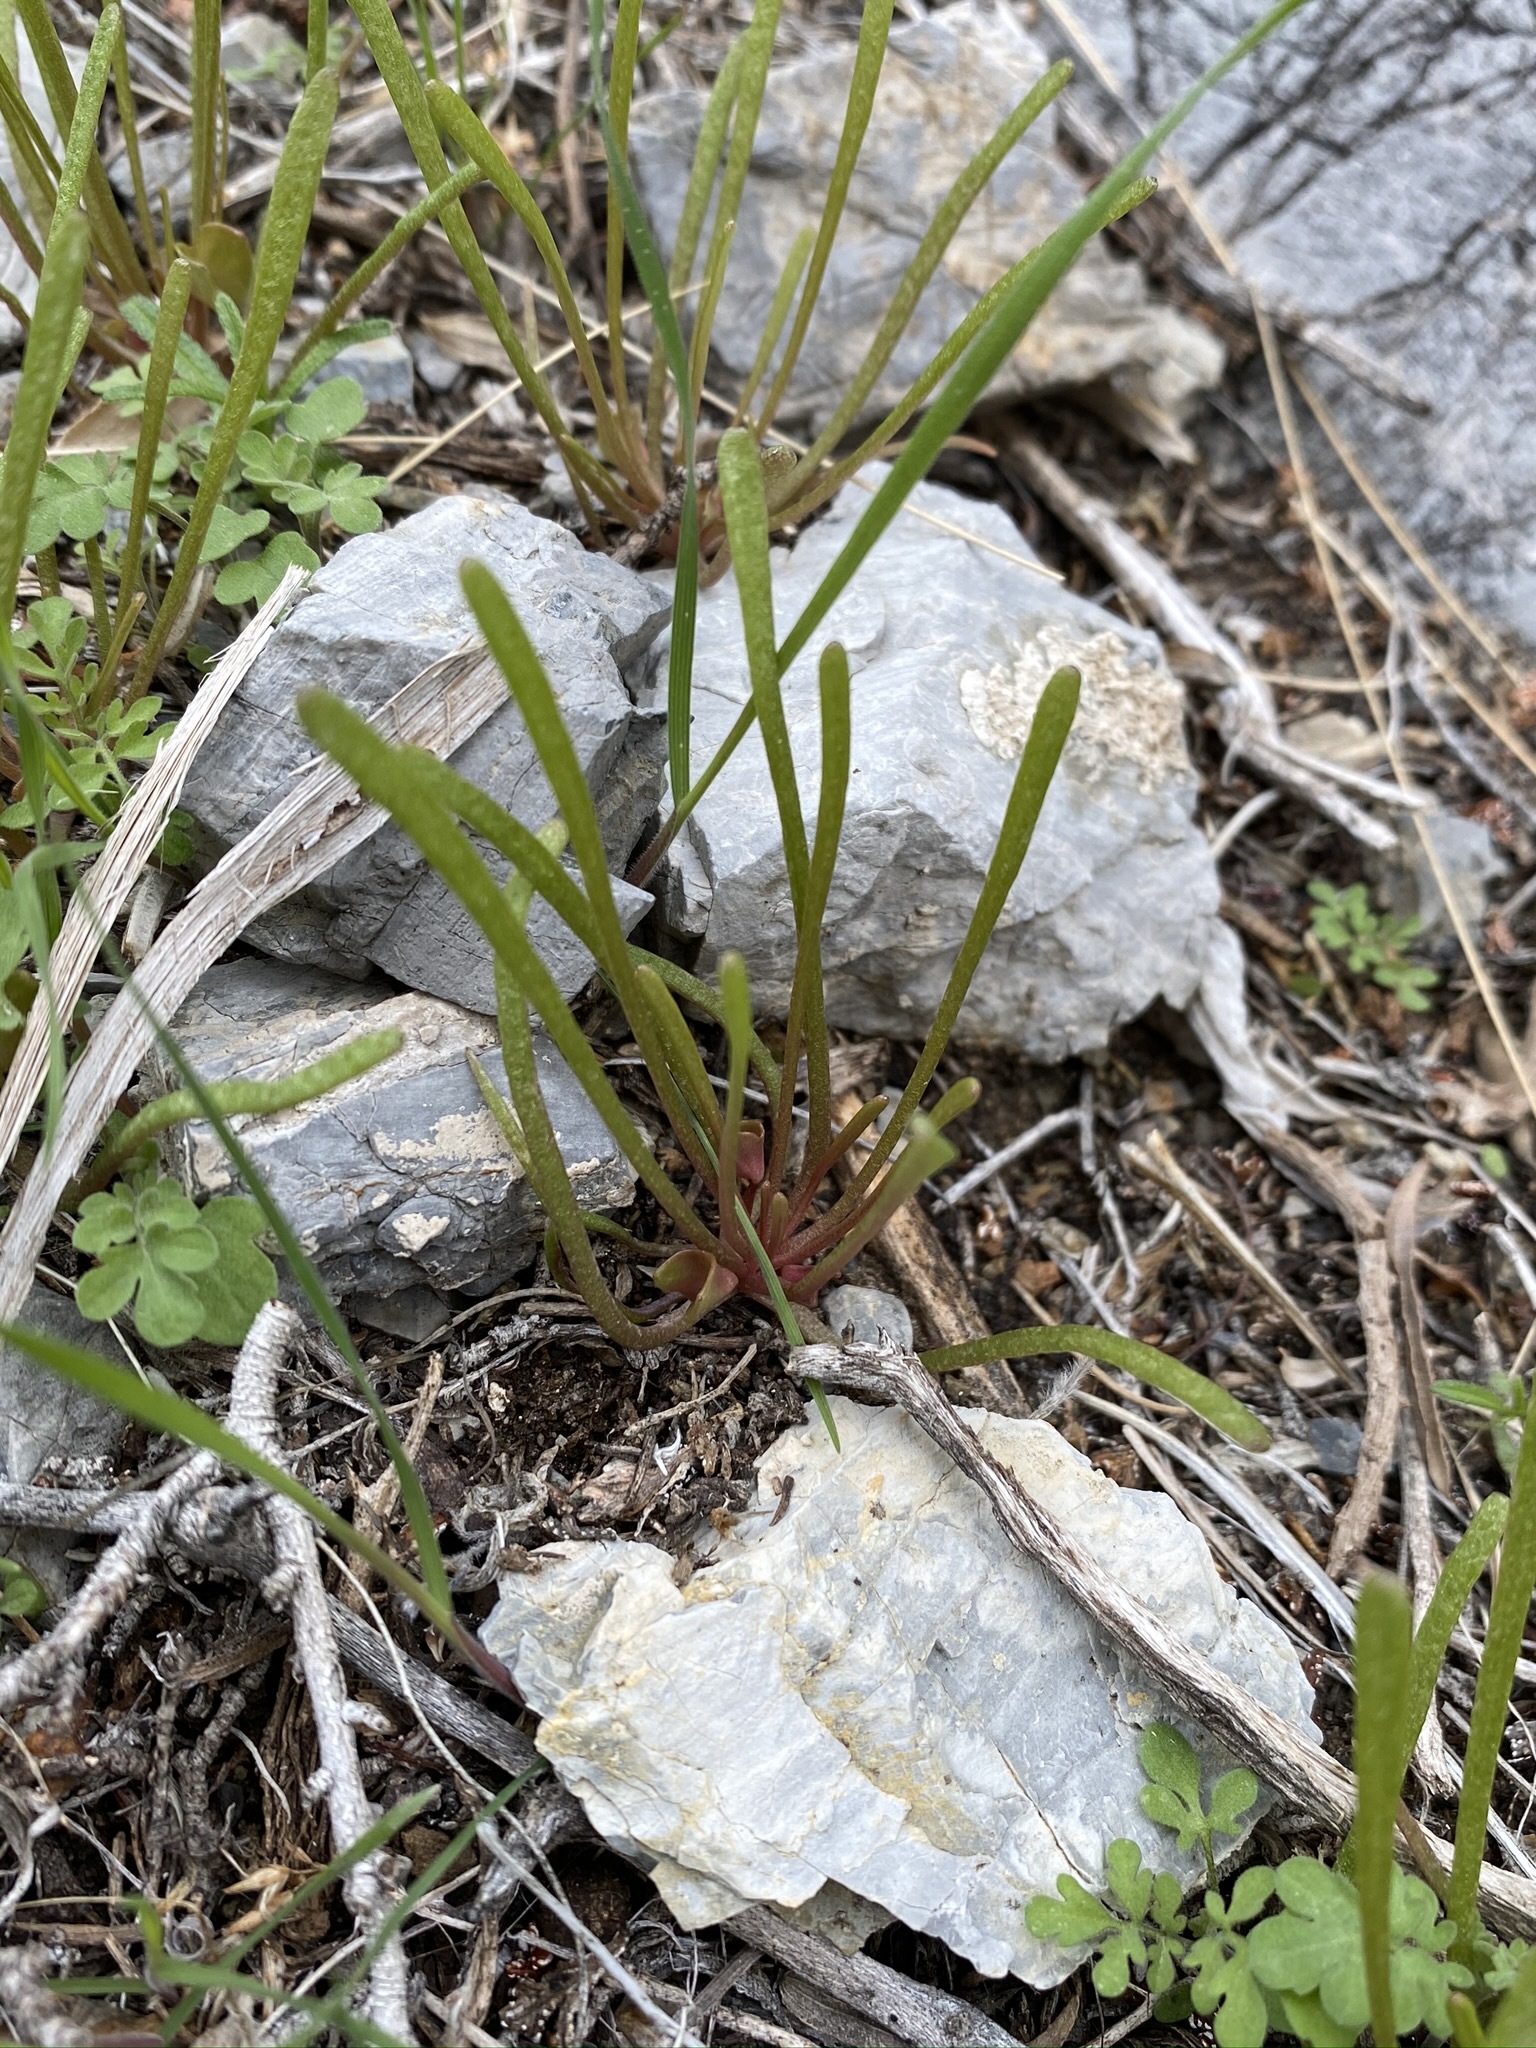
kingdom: Plantae
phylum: Tracheophyta
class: Magnoliopsida
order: Caryophyllales
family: Montiaceae
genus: Claytonia
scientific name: Claytonia parviflora
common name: Indian-lettuce
